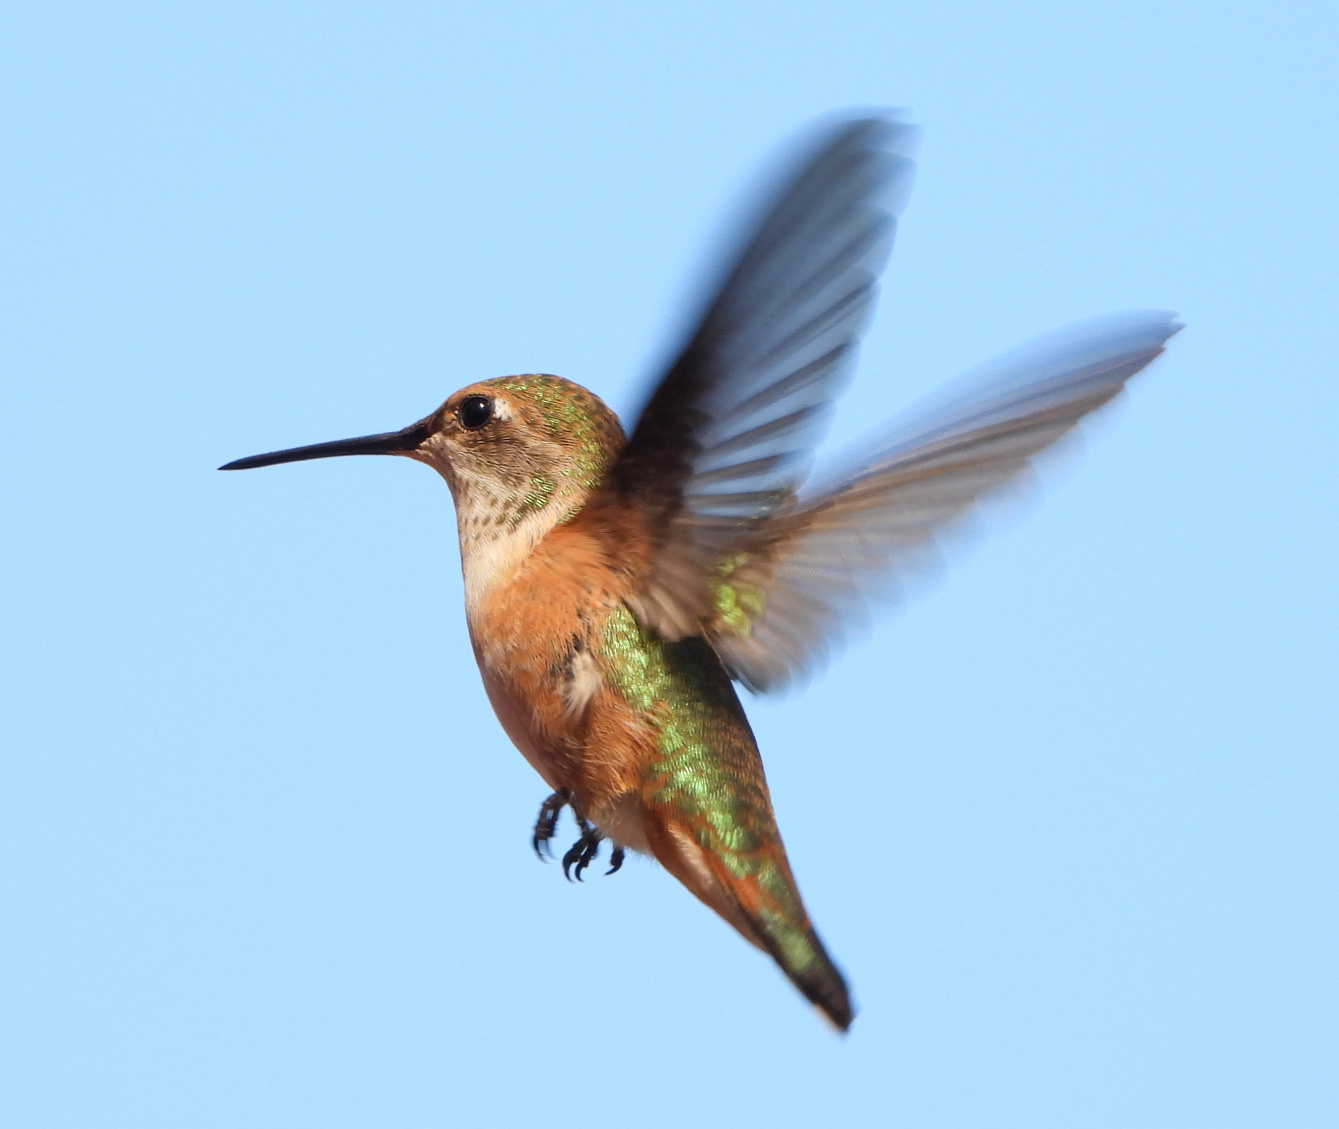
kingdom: Animalia
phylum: Chordata
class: Aves
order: Apodiformes
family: Trochilidae
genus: Selasphorus
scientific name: Selasphorus rufus
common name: Rufous hummingbird
